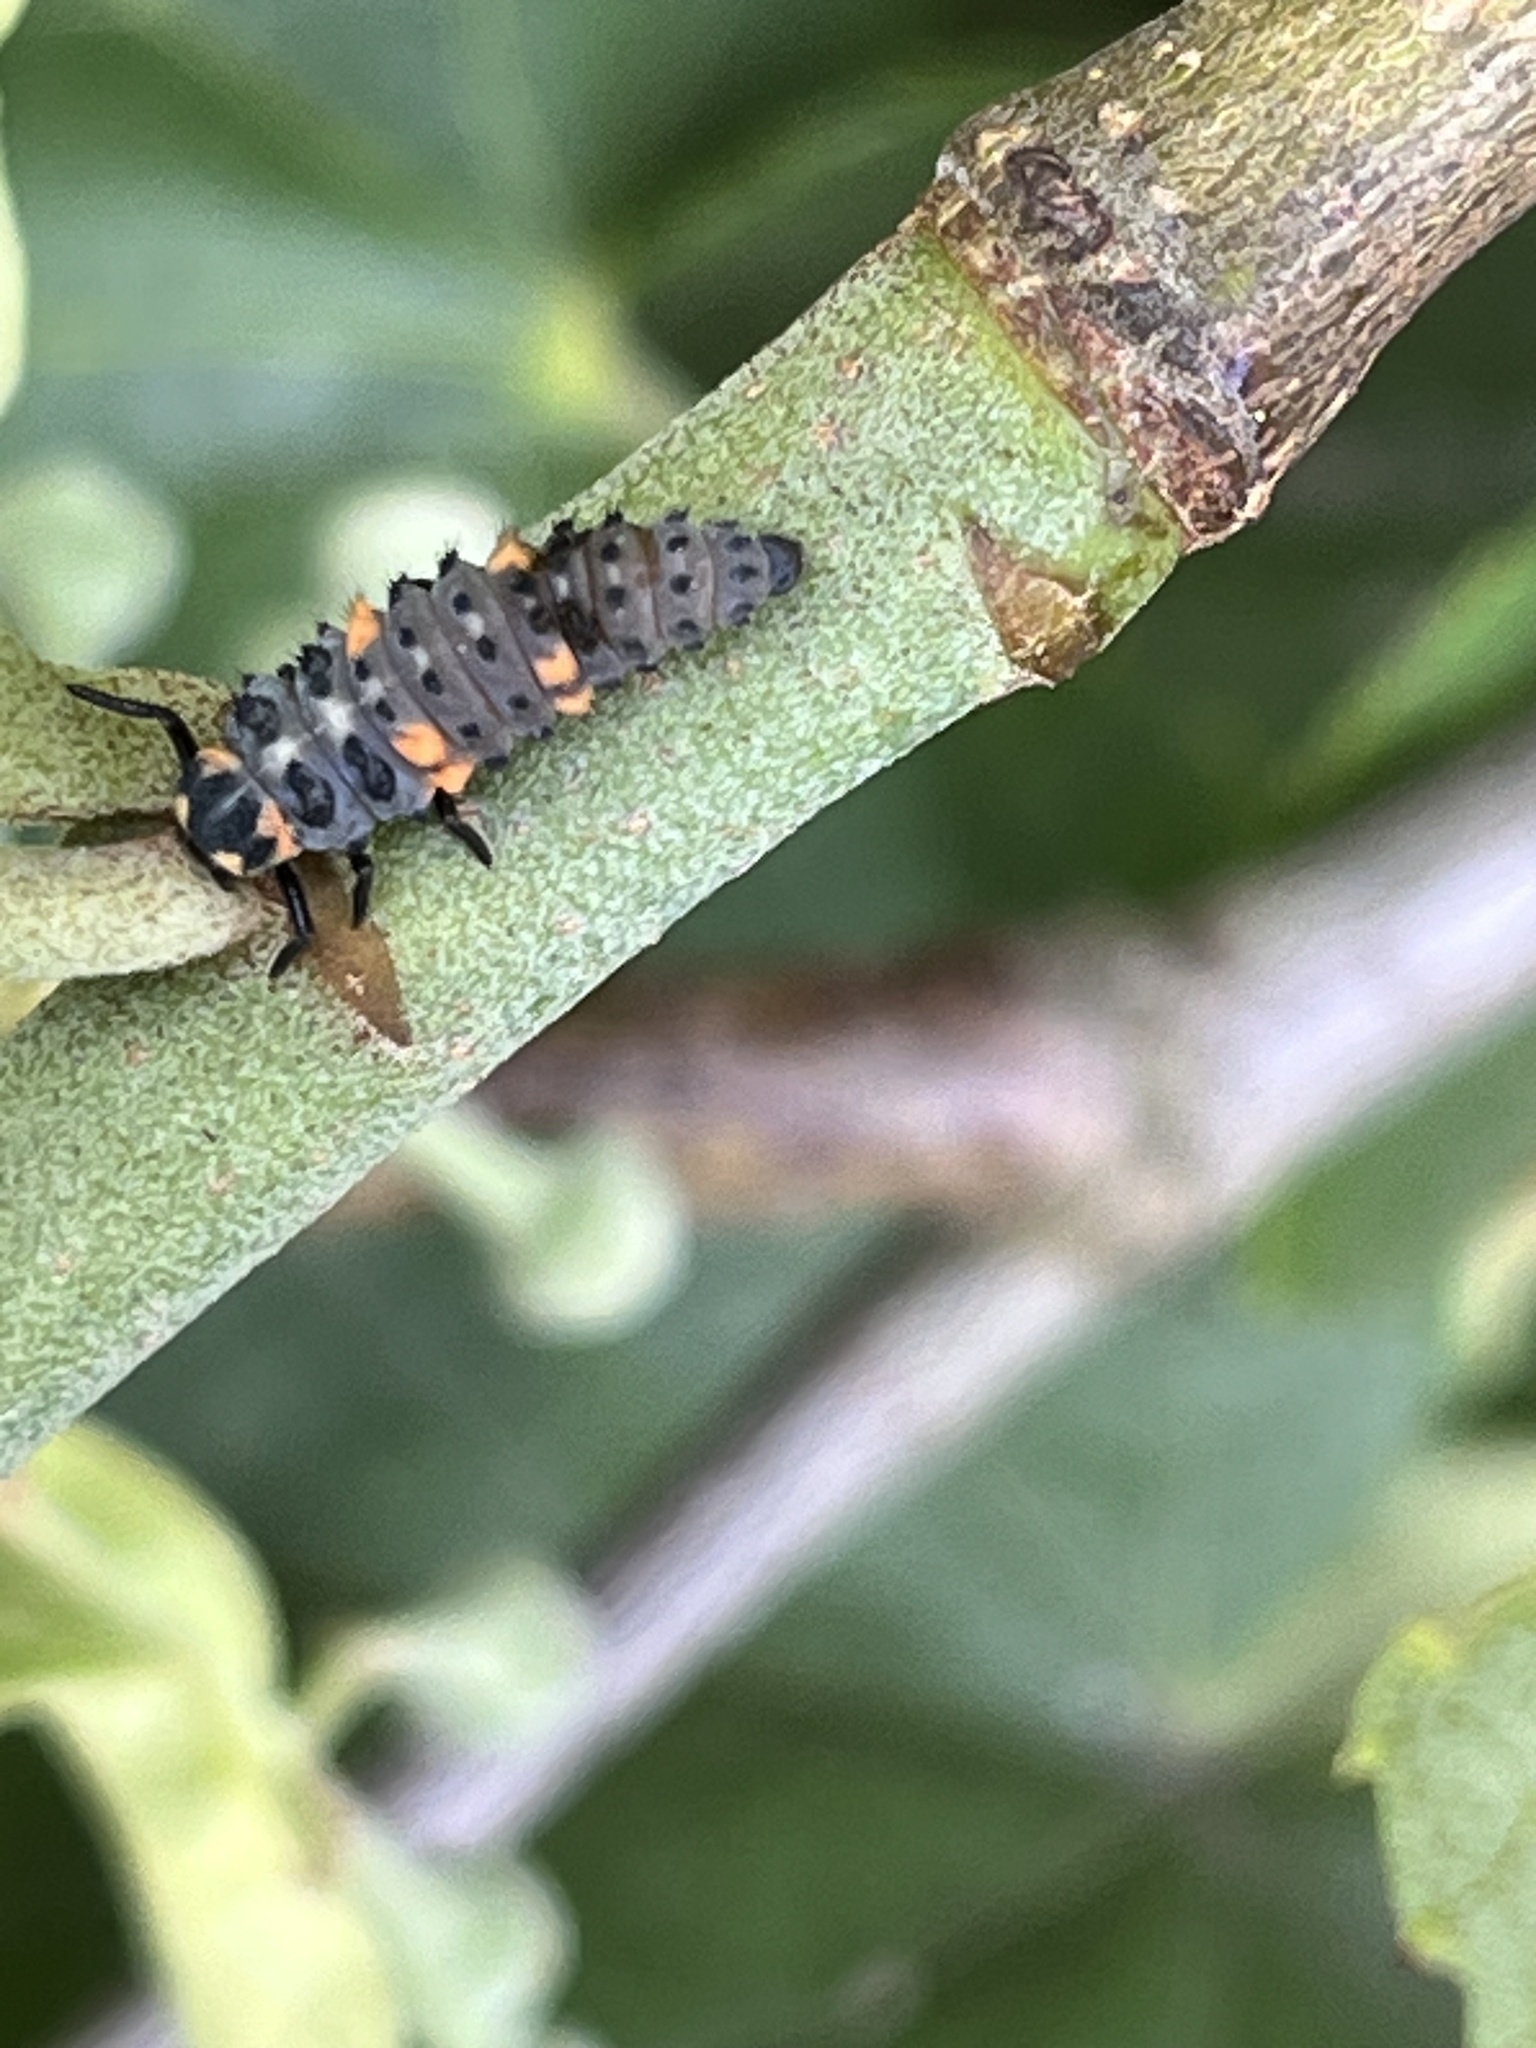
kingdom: Animalia
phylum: Arthropoda
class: Insecta
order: Coleoptera
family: Coccinellidae
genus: Coccinella
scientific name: Coccinella septempunctata
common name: Sevenspotted lady beetle
